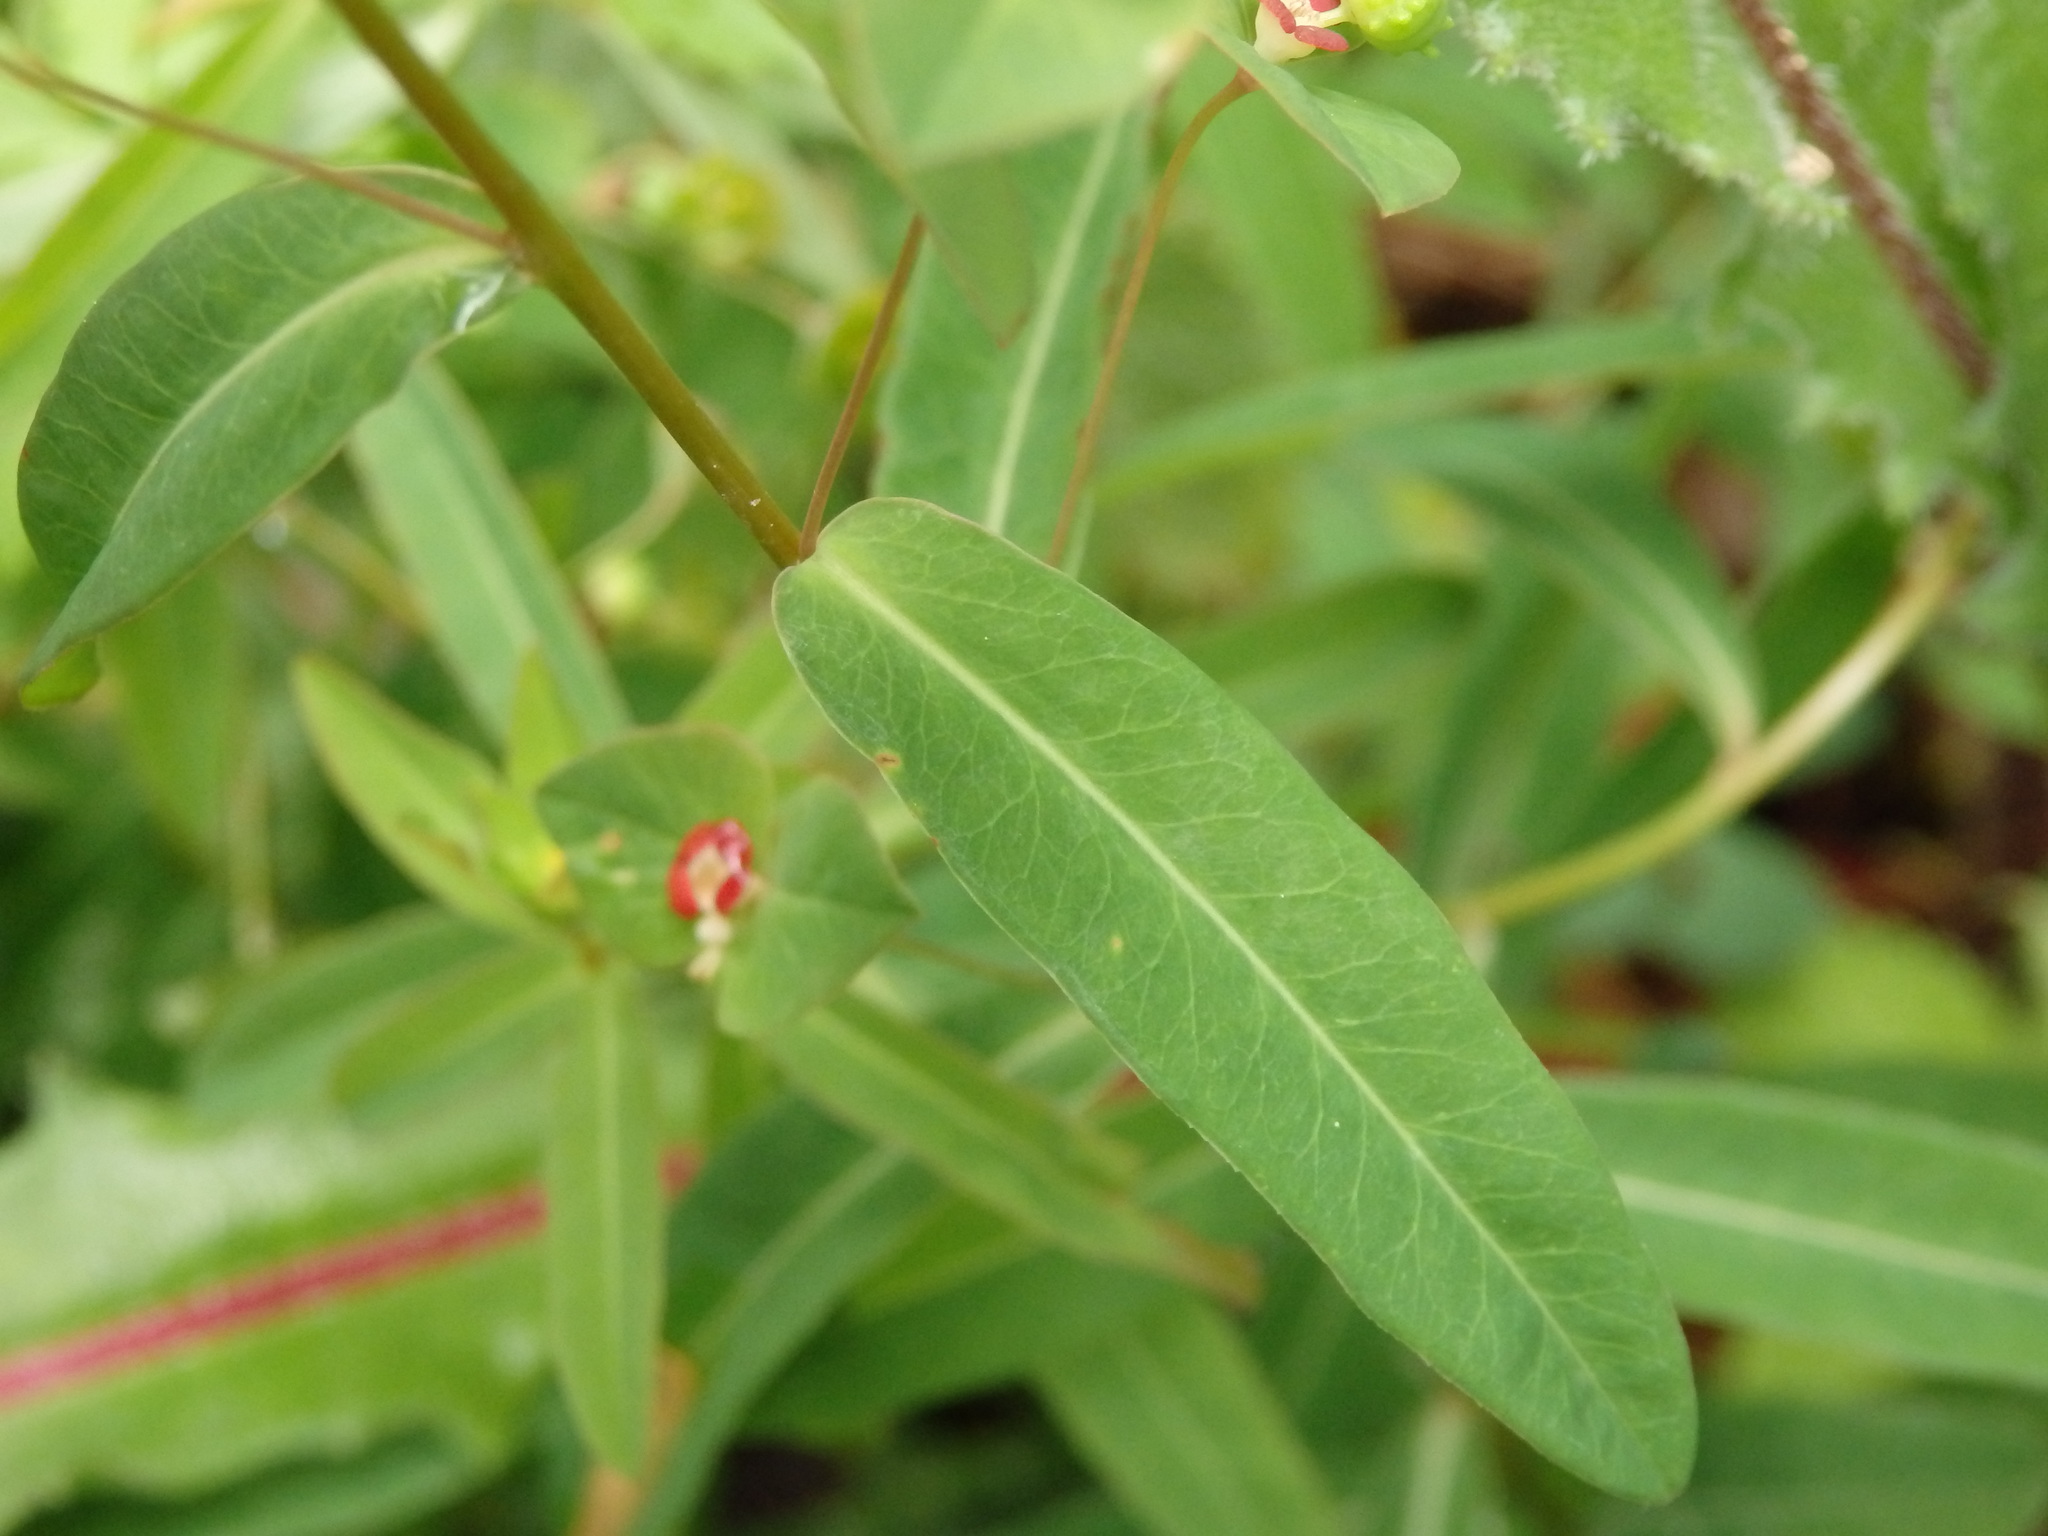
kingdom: Plantae
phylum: Tracheophyta
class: Magnoliopsida
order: Malpighiales
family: Euphorbiaceae
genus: Euphorbia
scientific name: Euphorbia dulcis
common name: Sweet spurge
